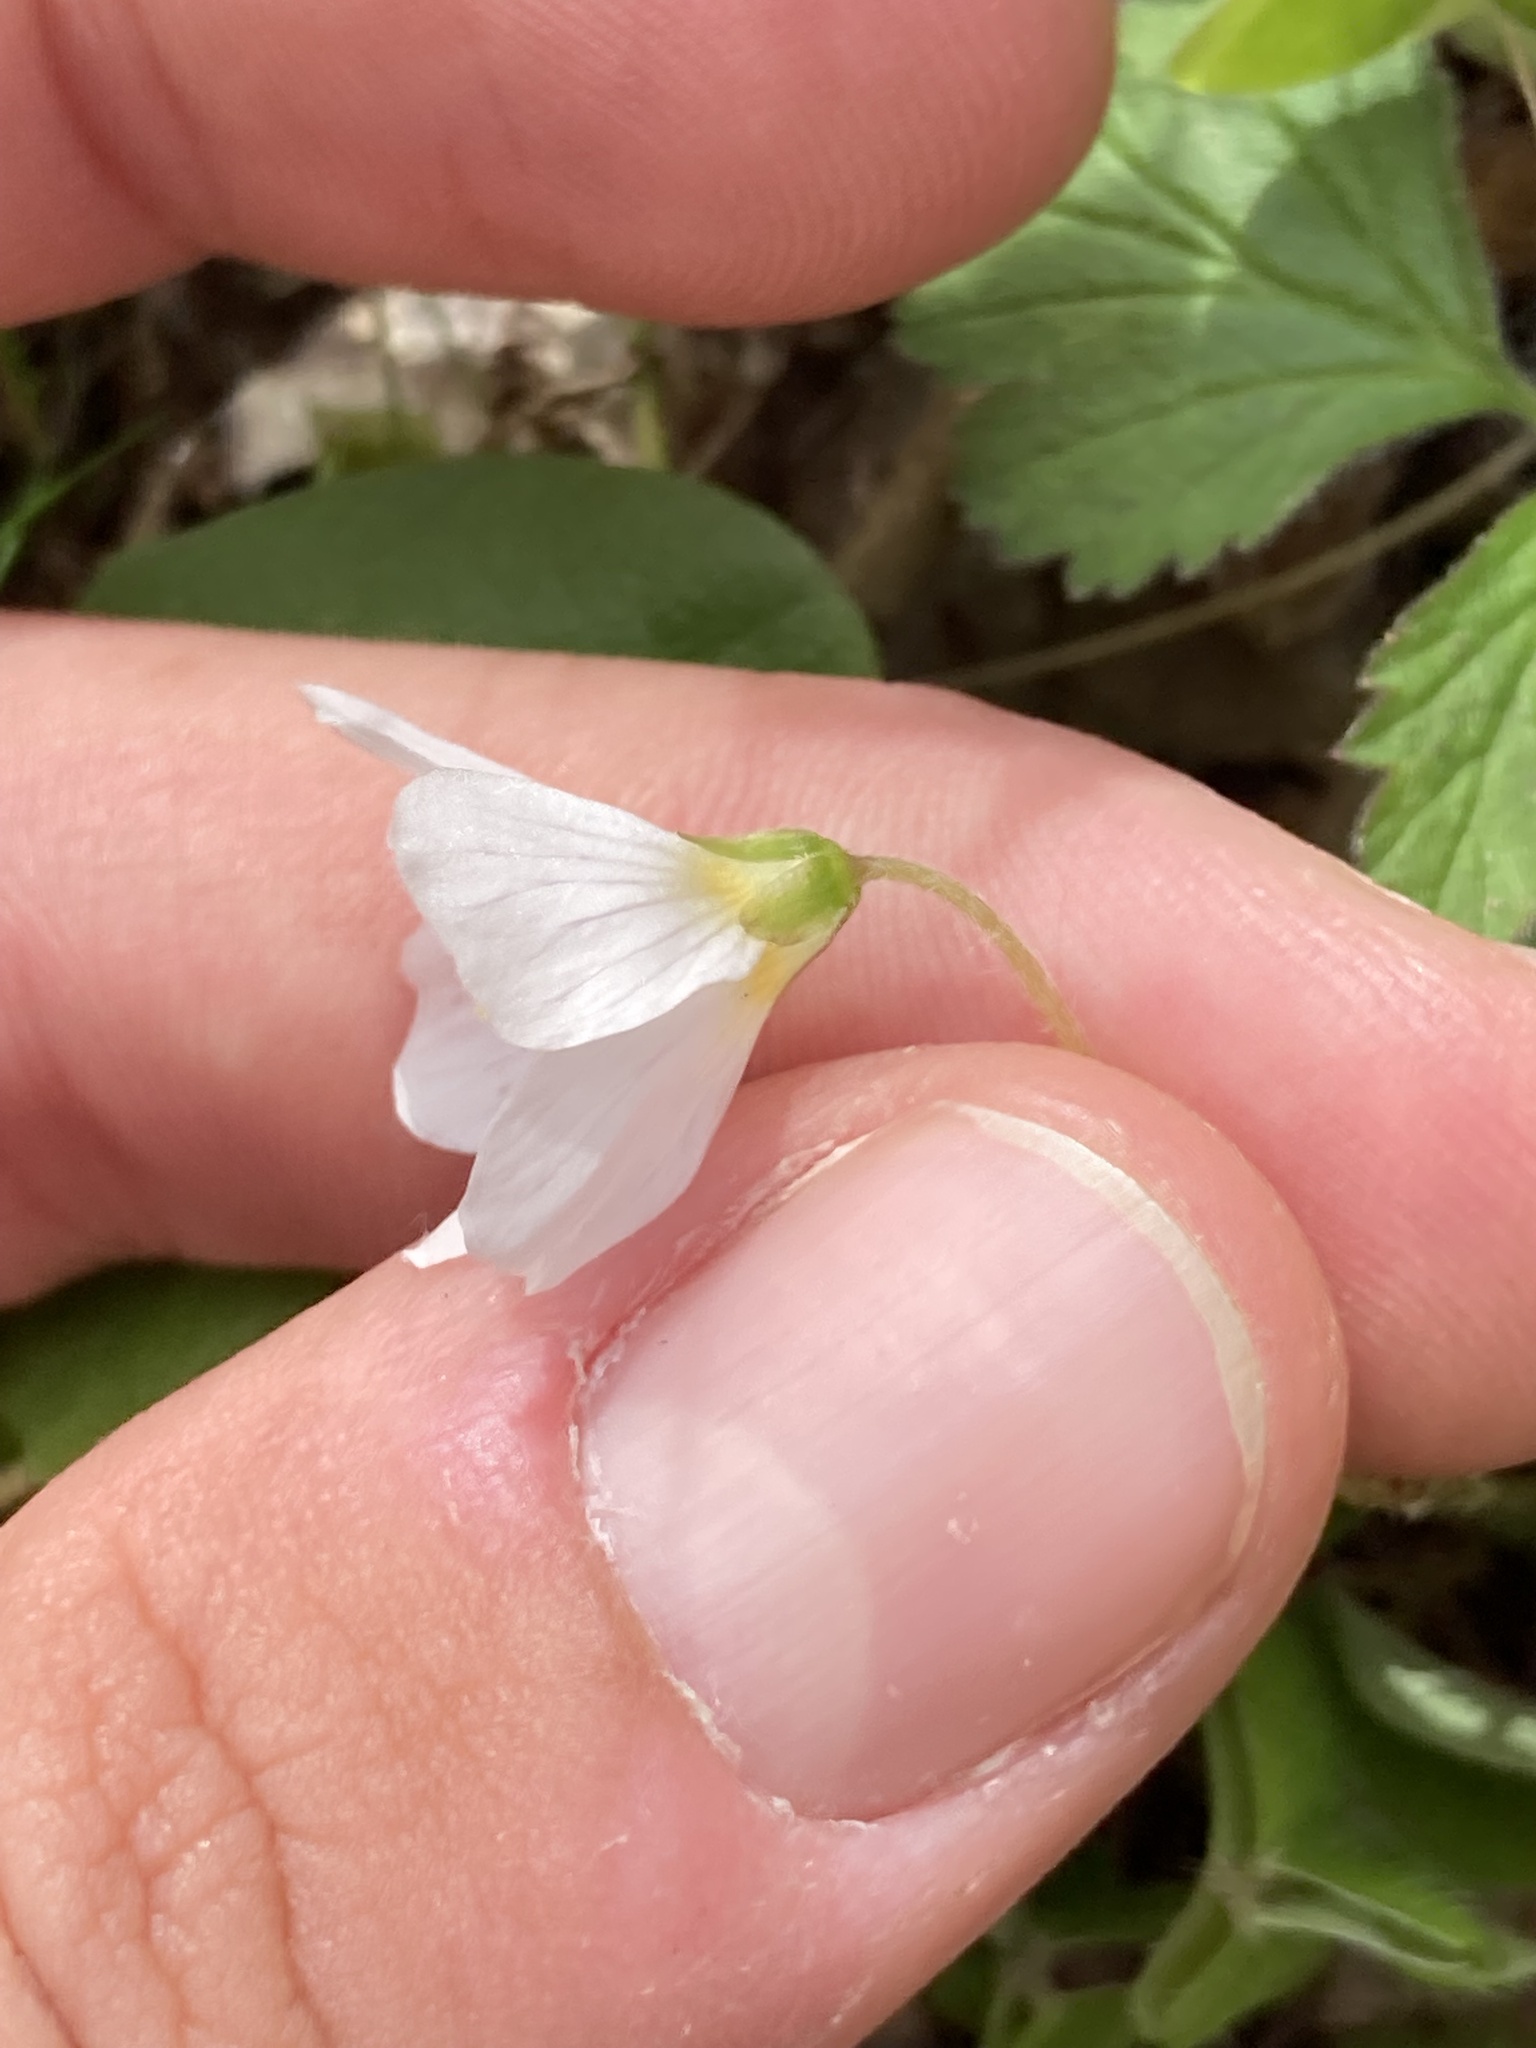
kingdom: Plantae
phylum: Tracheophyta
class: Magnoliopsida
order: Oxalidales
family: Oxalidaceae
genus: Oxalis
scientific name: Oxalis acetosella
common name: Wood-sorrel
